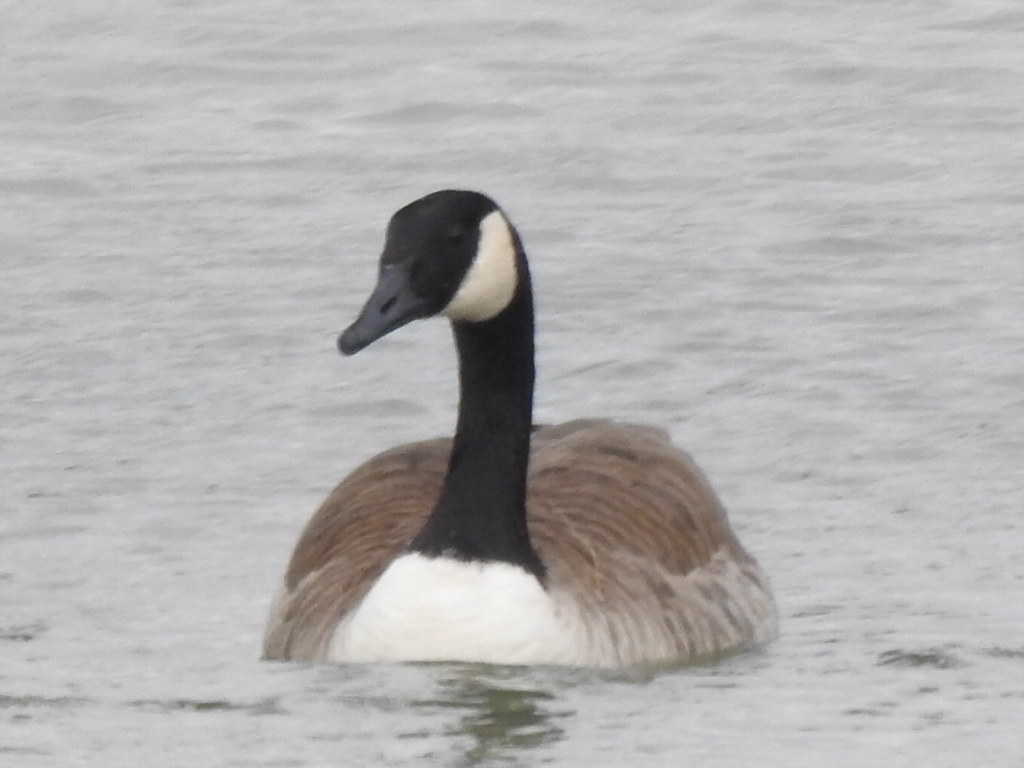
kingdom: Animalia
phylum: Chordata
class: Aves
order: Anseriformes
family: Anatidae
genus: Branta
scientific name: Branta canadensis
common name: Canada goose
